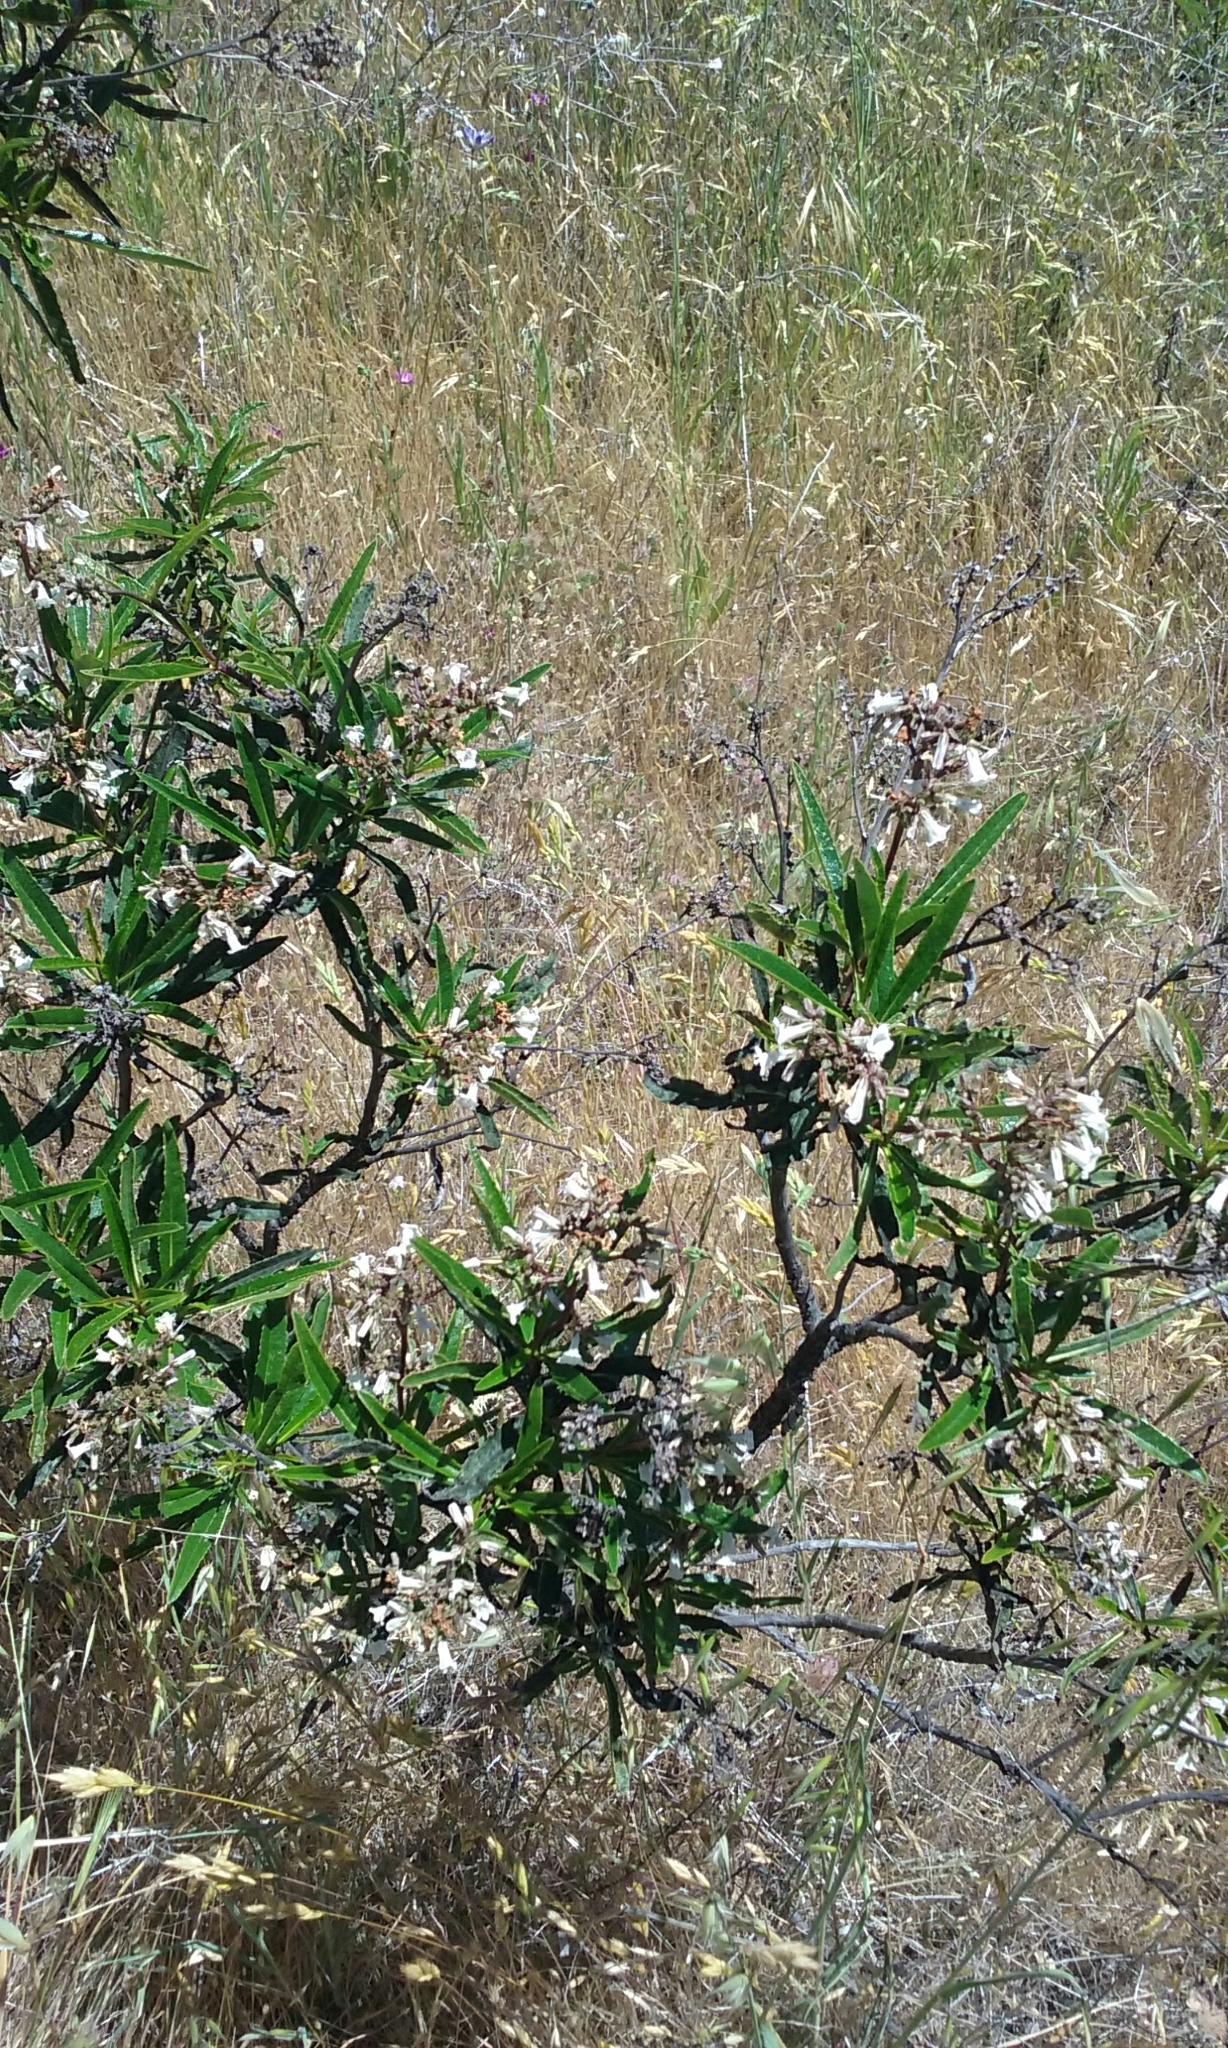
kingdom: Plantae
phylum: Tracheophyta
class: Magnoliopsida
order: Boraginales
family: Namaceae
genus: Eriodictyon
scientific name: Eriodictyon californicum
